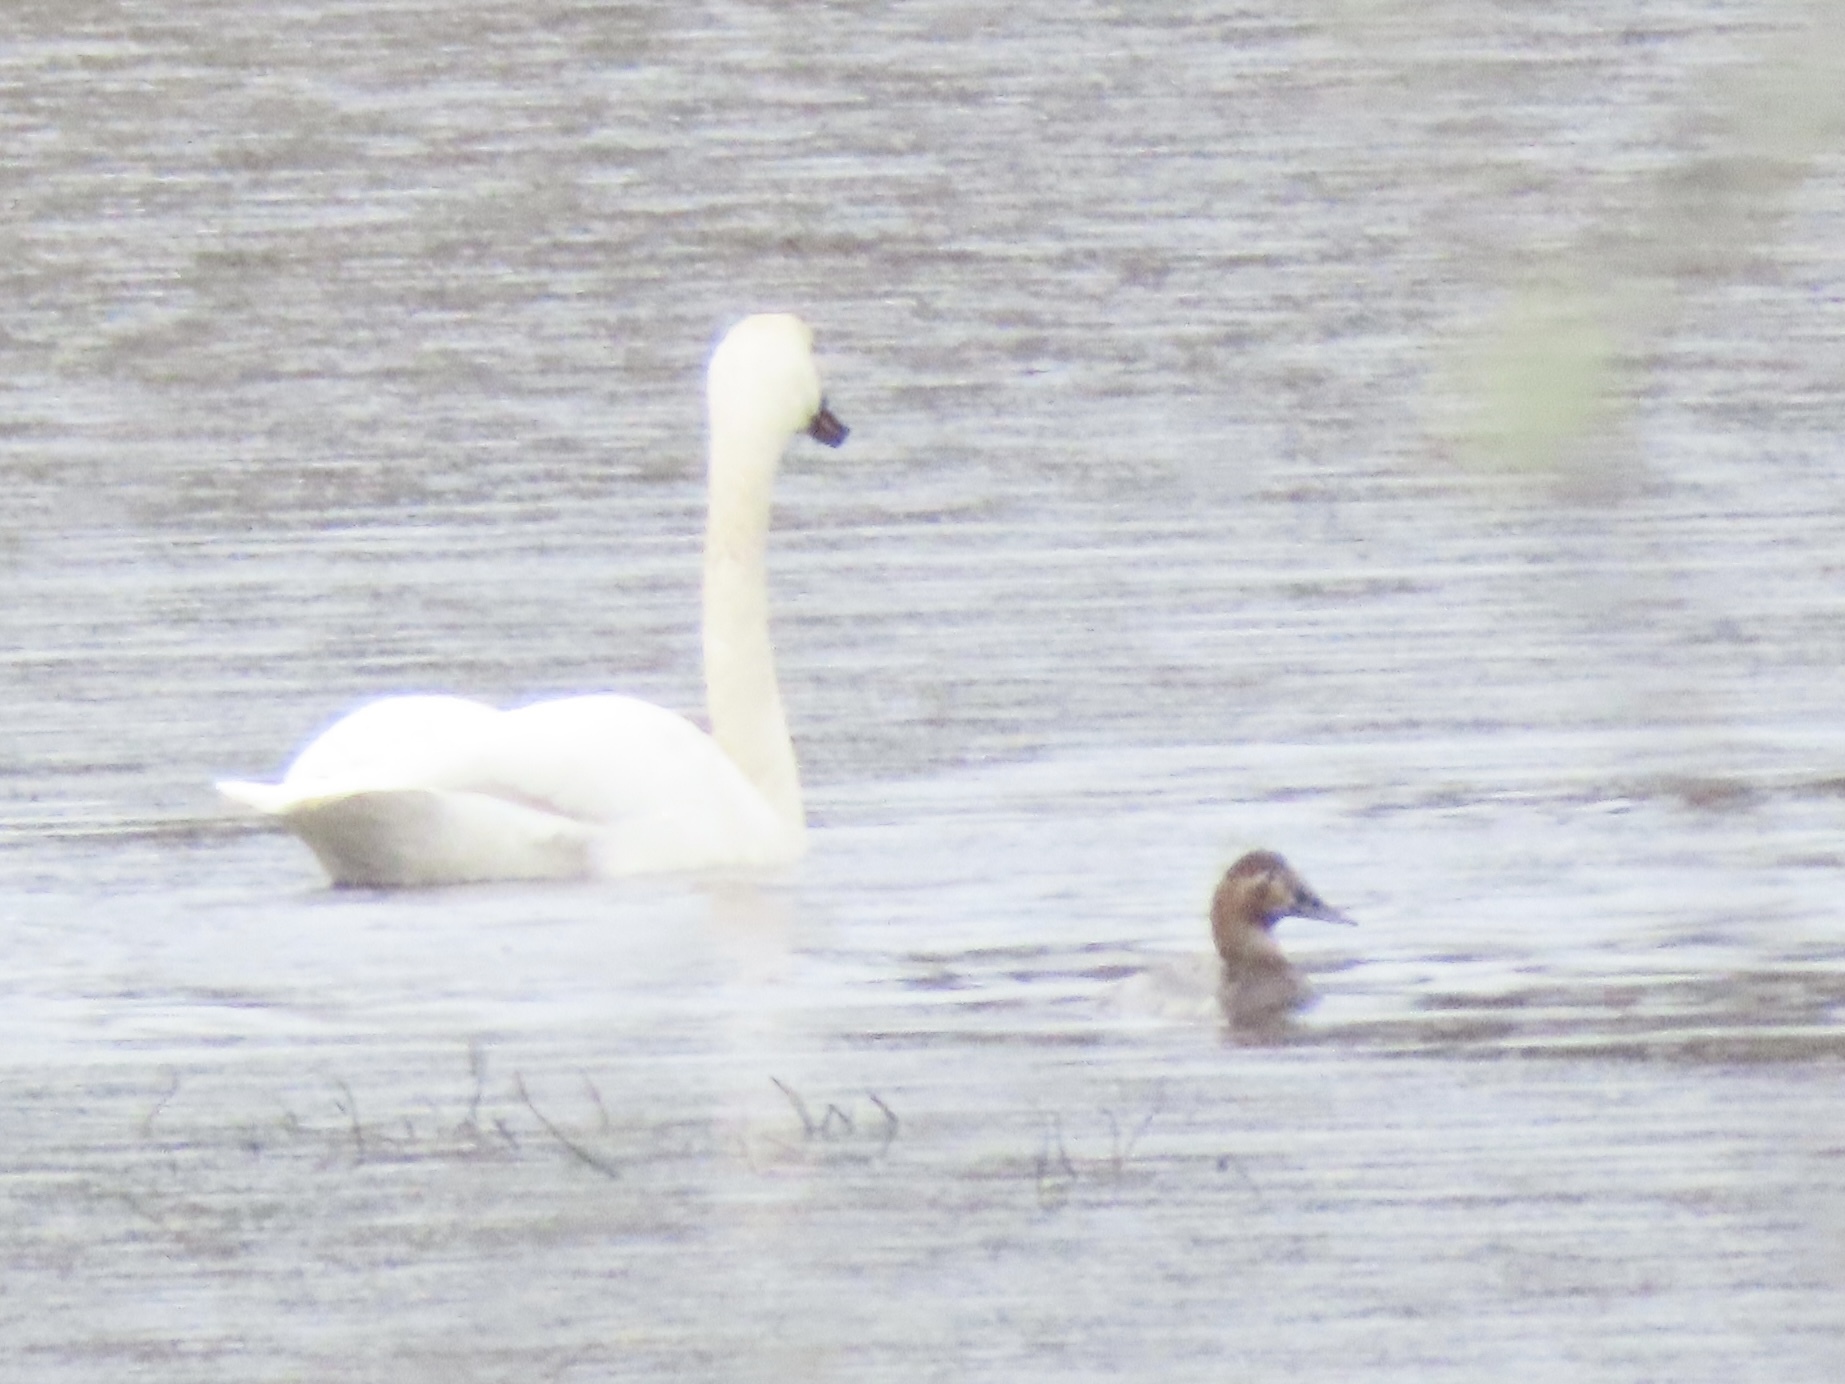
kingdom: Animalia
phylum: Chordata
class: Aves
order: Anseriformes
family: Anatidae
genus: Aythya
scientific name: Aythya valisineria
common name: Canvasback
